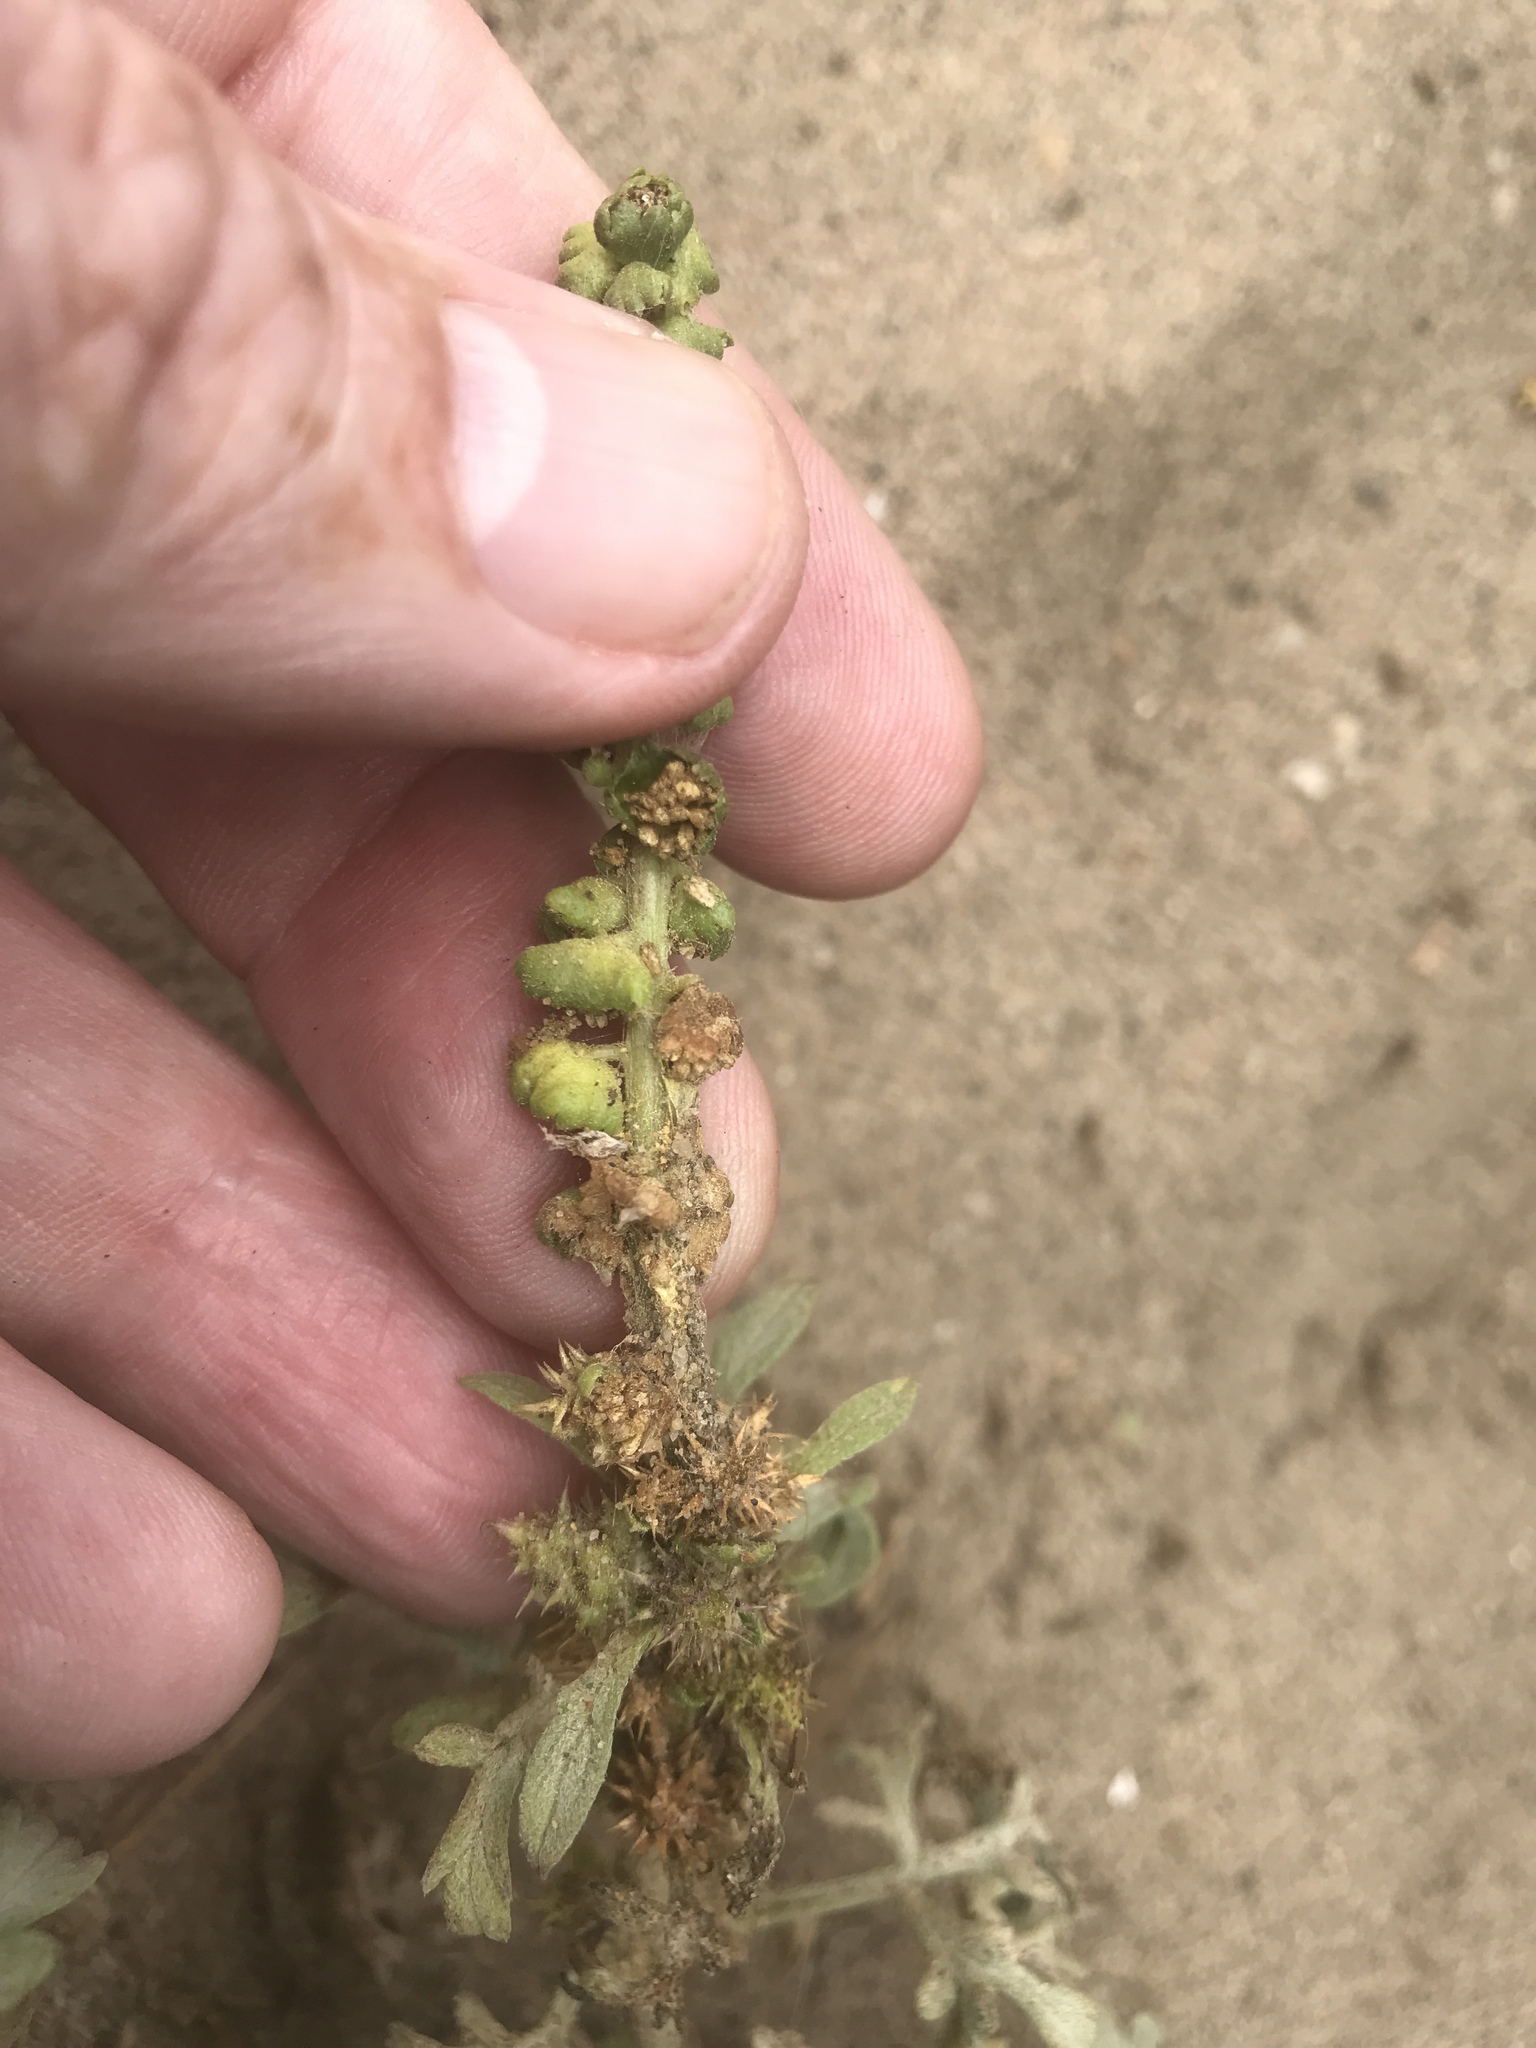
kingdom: Plantae
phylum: Tracheophyta
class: Magnoliopsida
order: Asterales
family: Asteraceae
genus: Ambrosia
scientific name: Ambrosia chamissonis
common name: Beachbur
